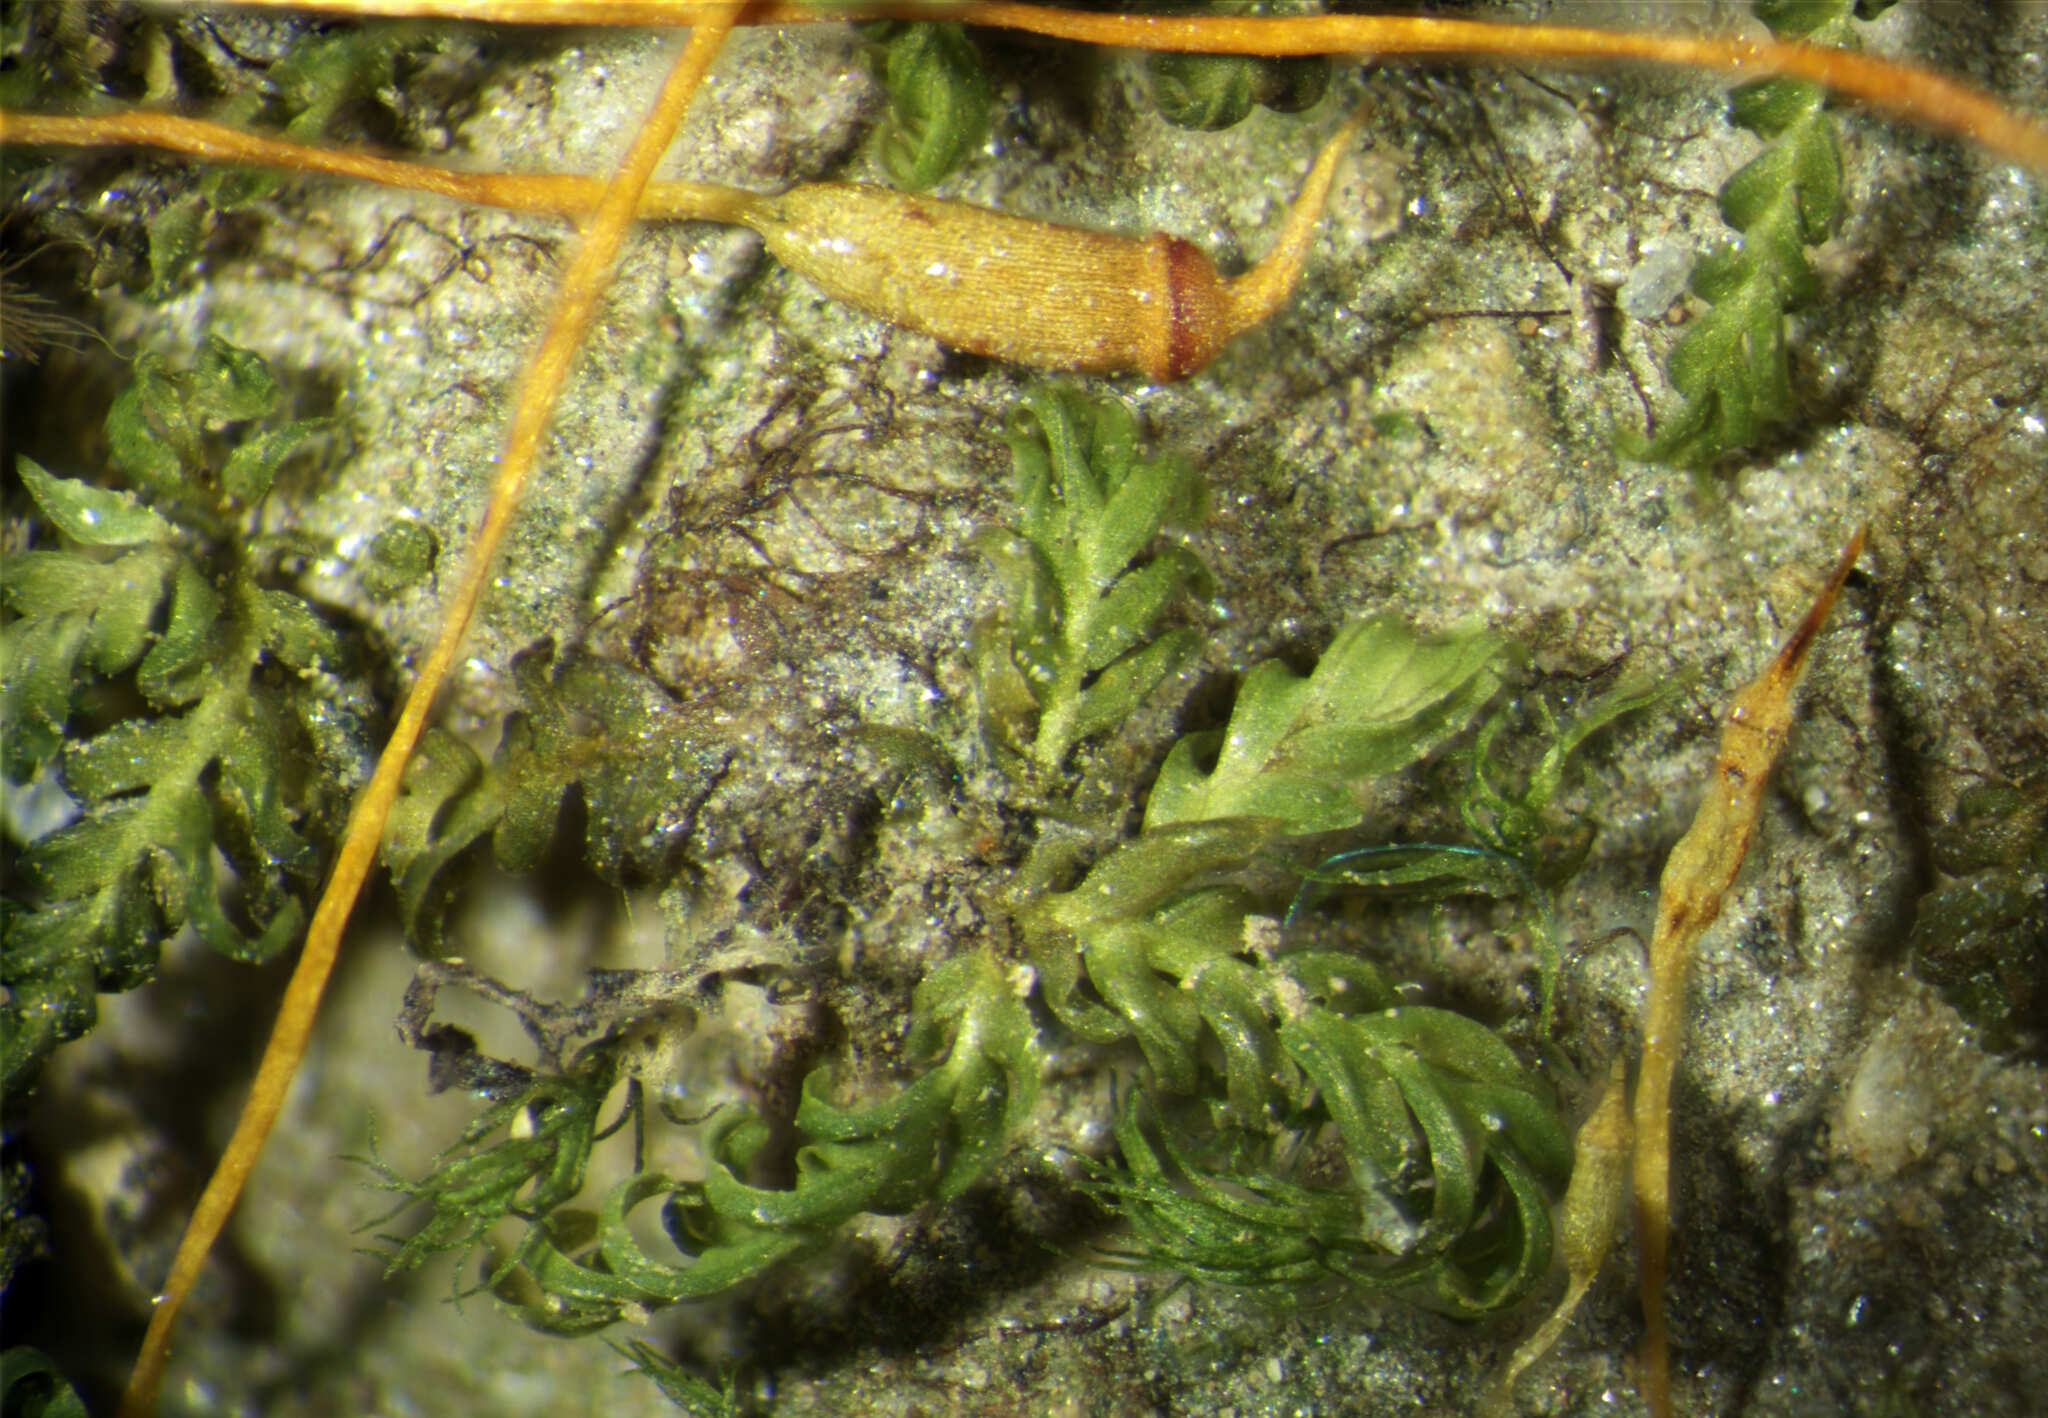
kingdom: Plantae
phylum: Bryophyta
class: Bryopsida
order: Dicranales
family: Fissidentaceae
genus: Fissidens
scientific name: Fissidens bushii
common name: Bush's pocket moss
